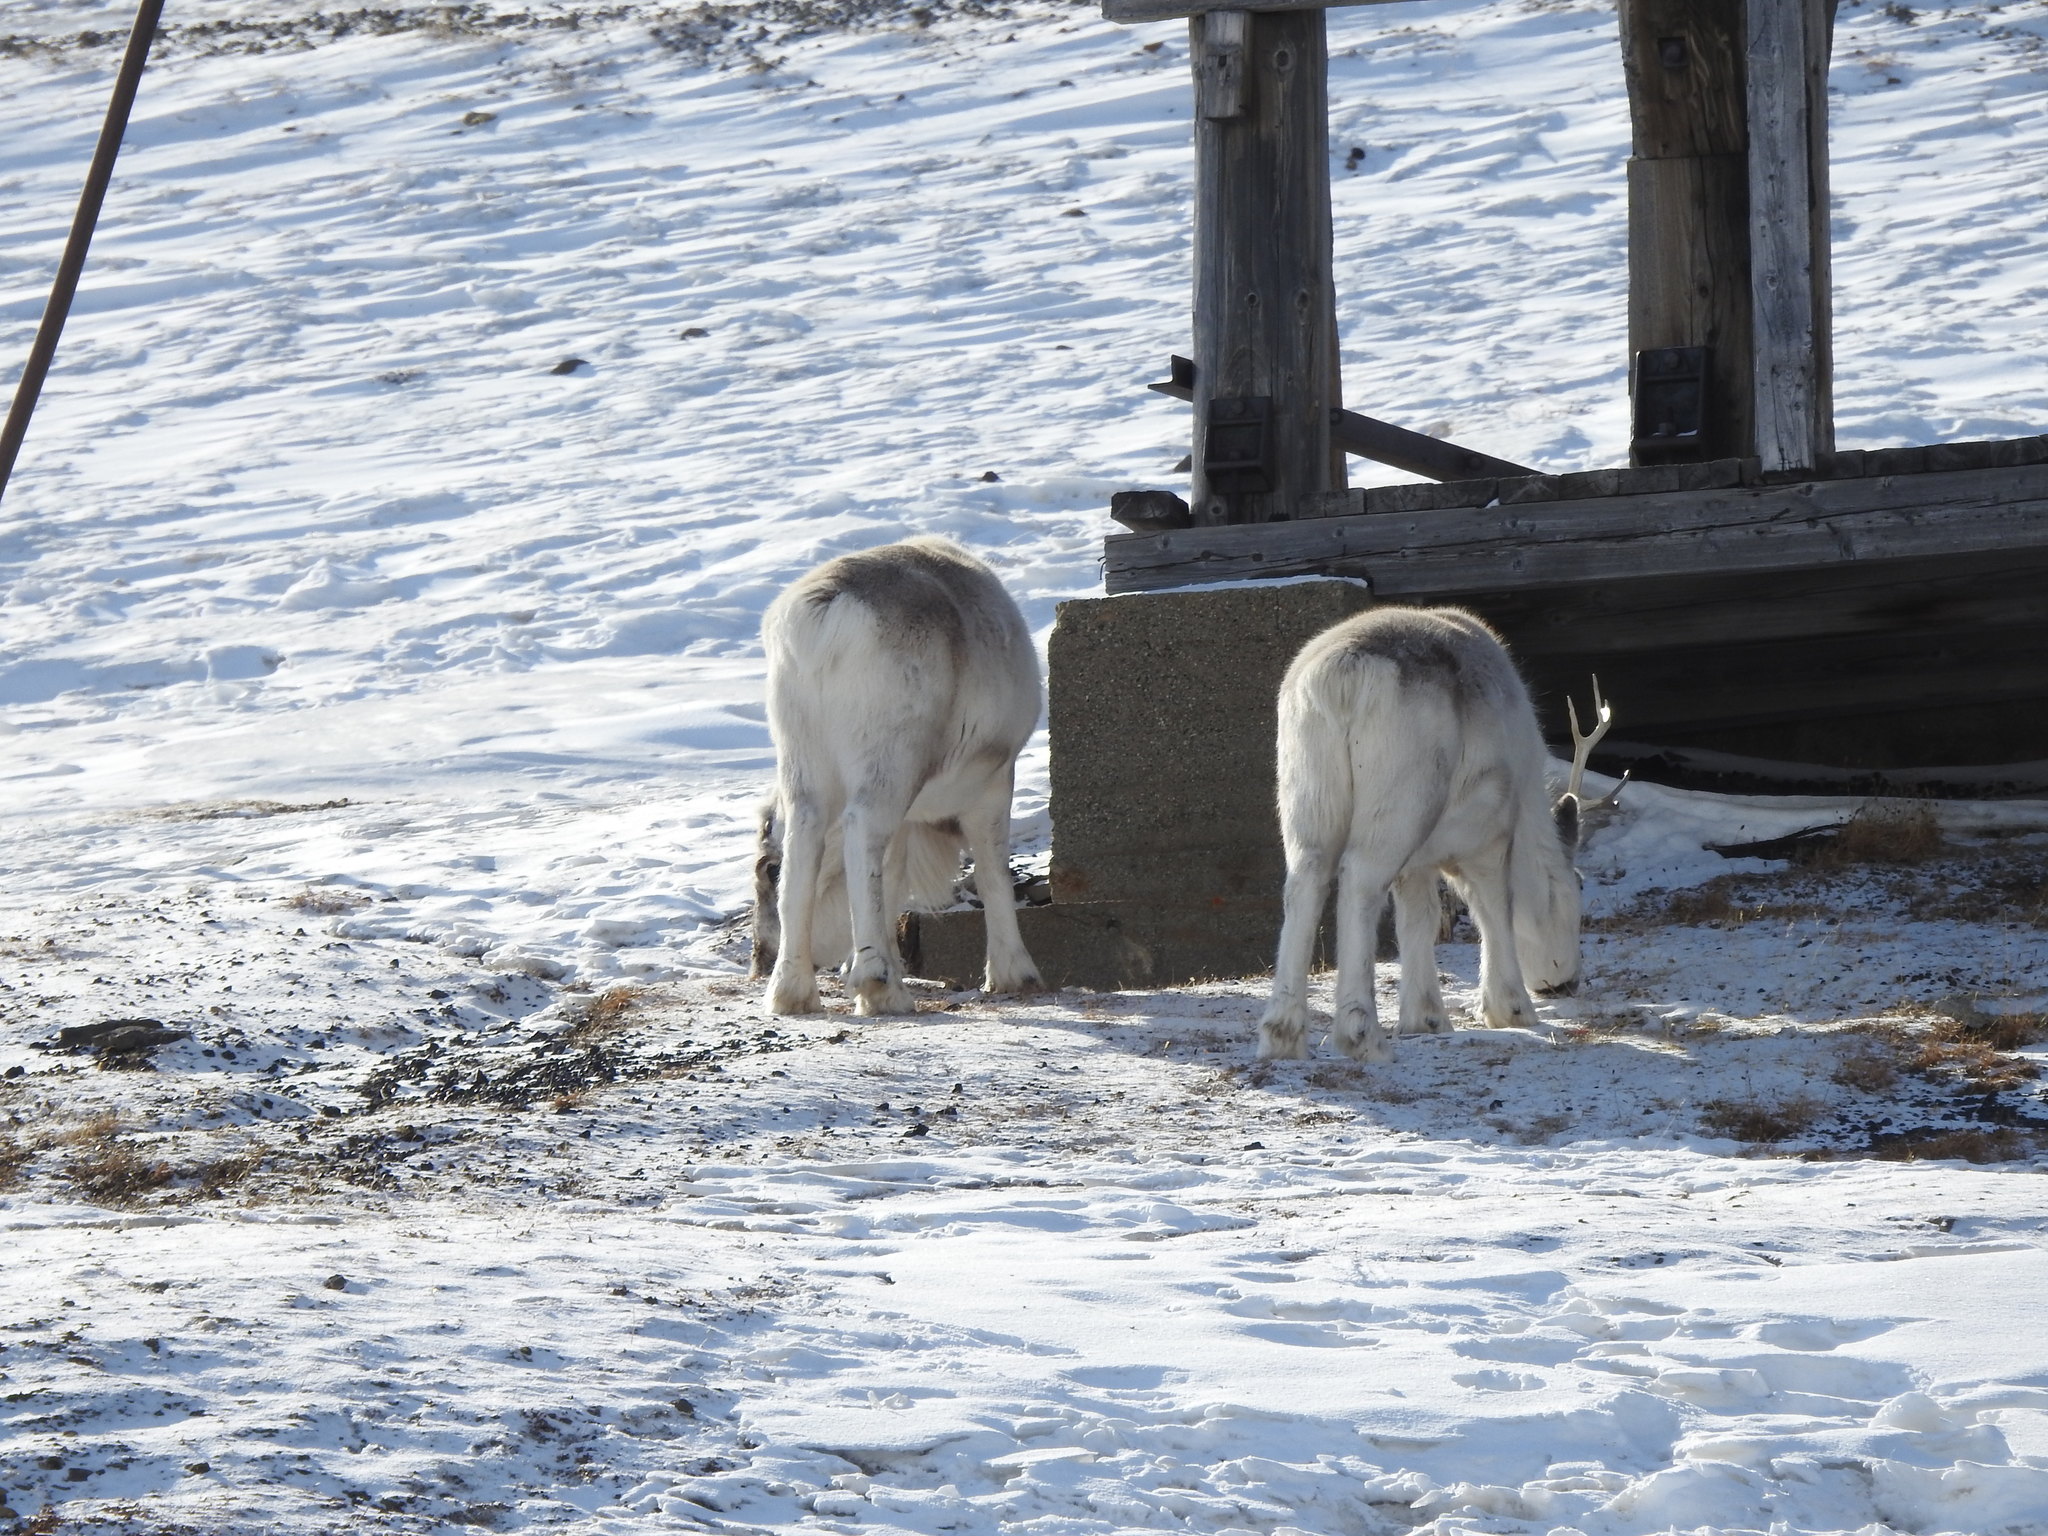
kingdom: Animalia
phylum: Chordata
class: Mammalia
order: Artiodactyla
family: Cervidae
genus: Rangifer
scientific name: Rangifer tarandus
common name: Reindeer
